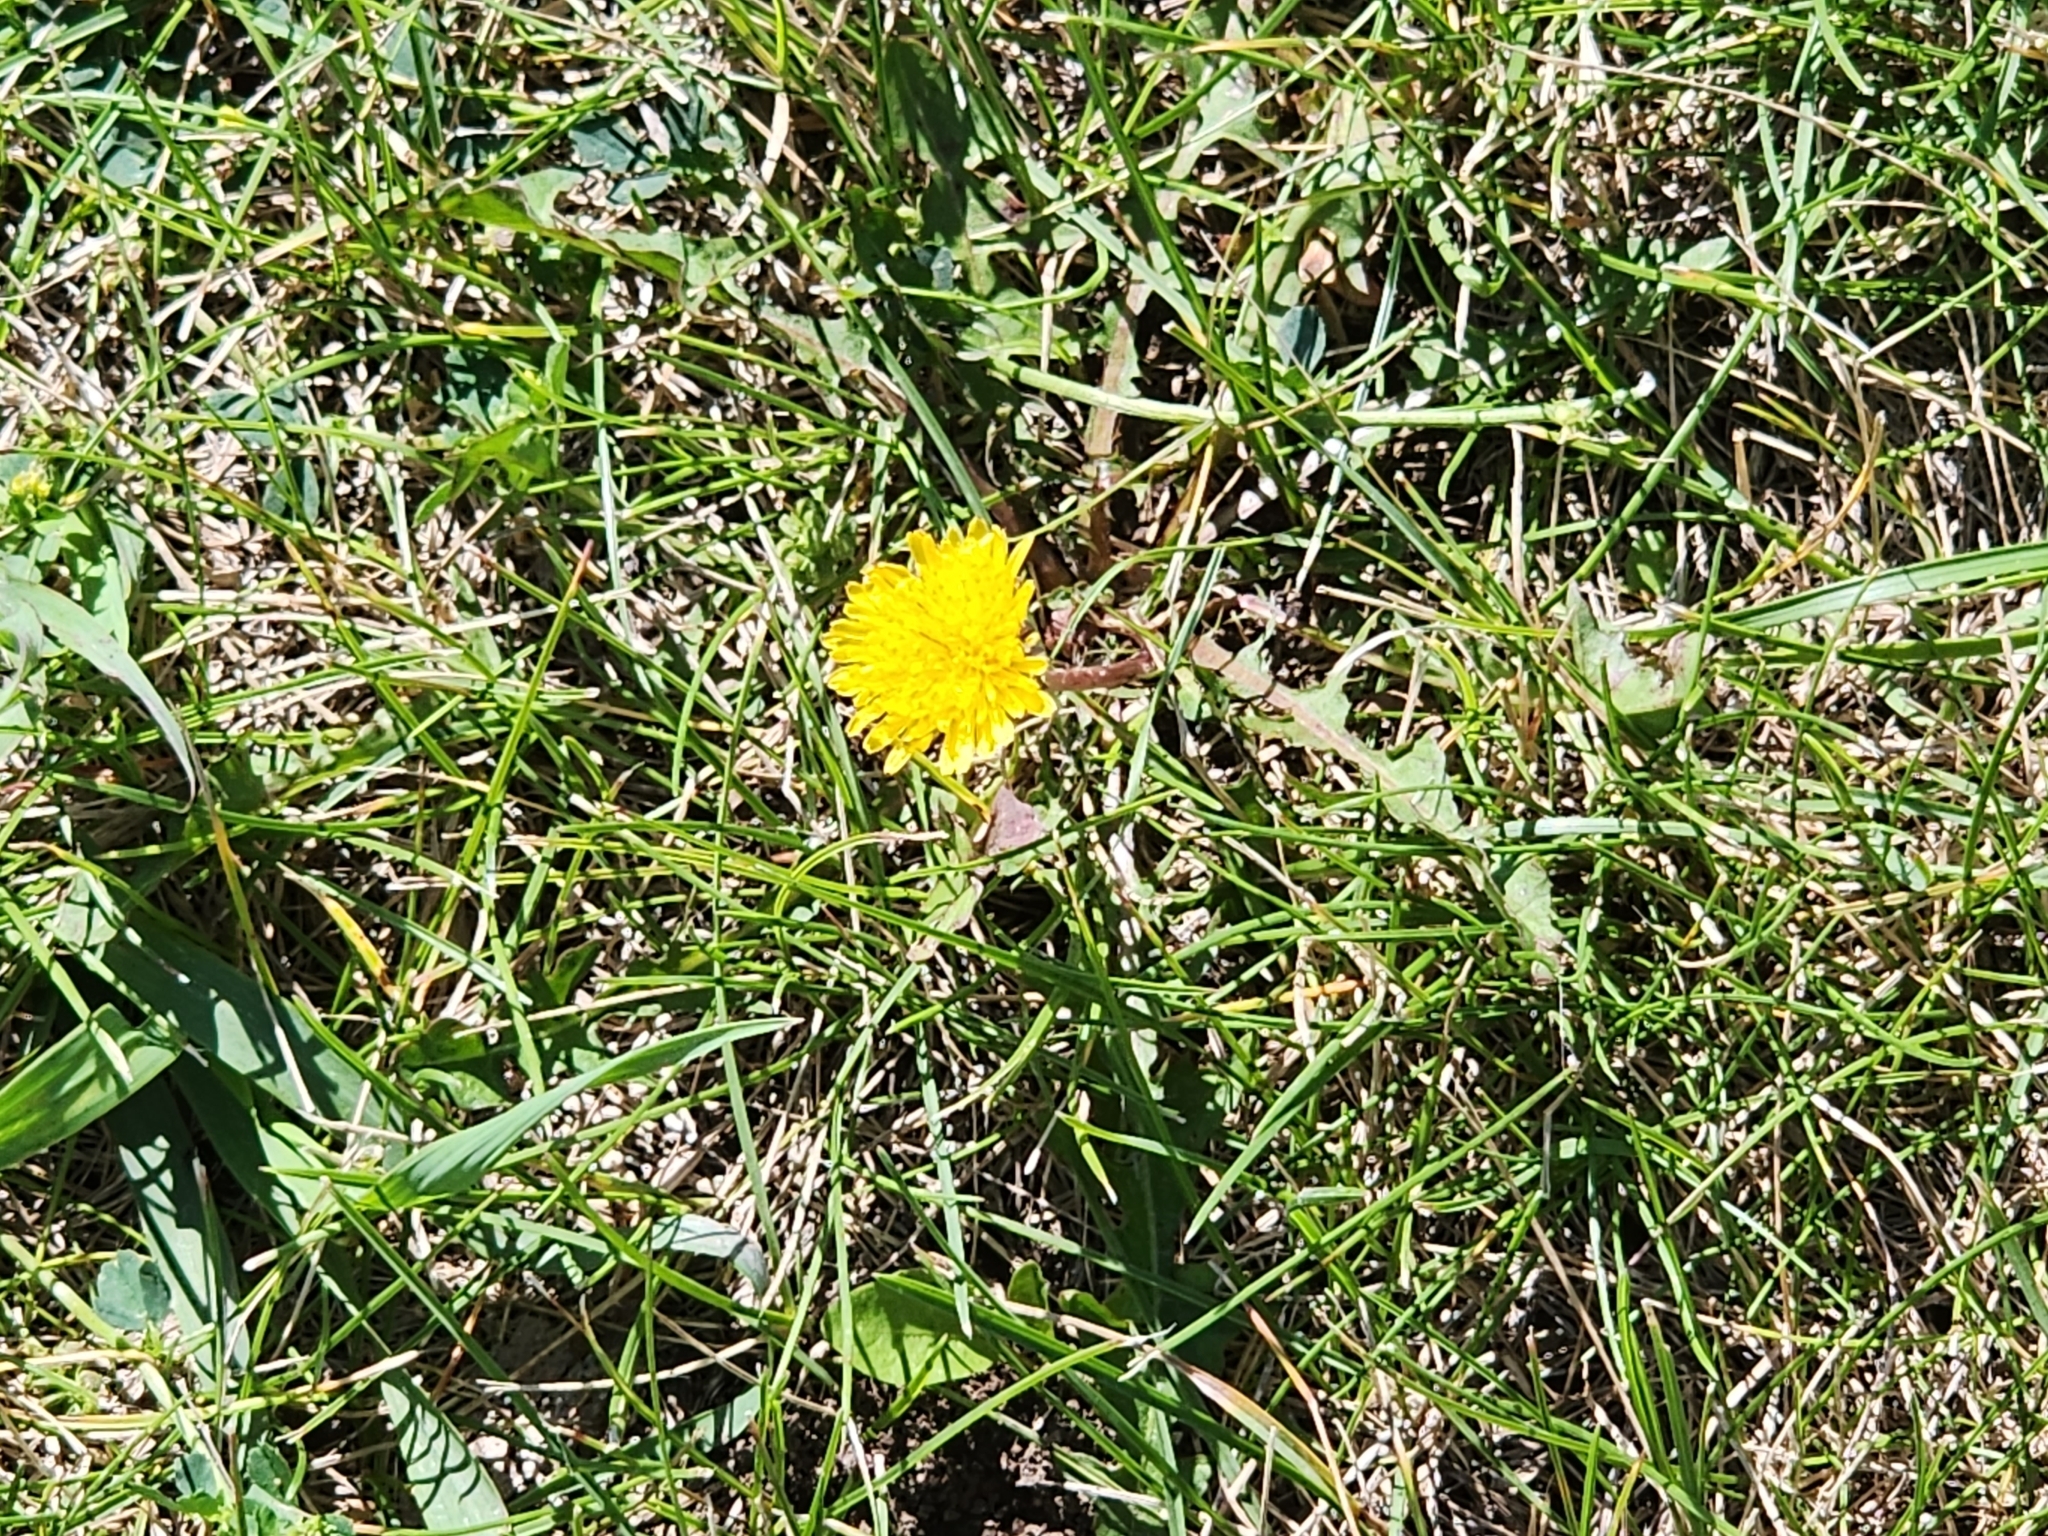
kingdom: Plantae
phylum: Tracheophyta
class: Magnoliopsida
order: Asterales
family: Asteraceae
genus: Taraxacum
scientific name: Taraxacum
